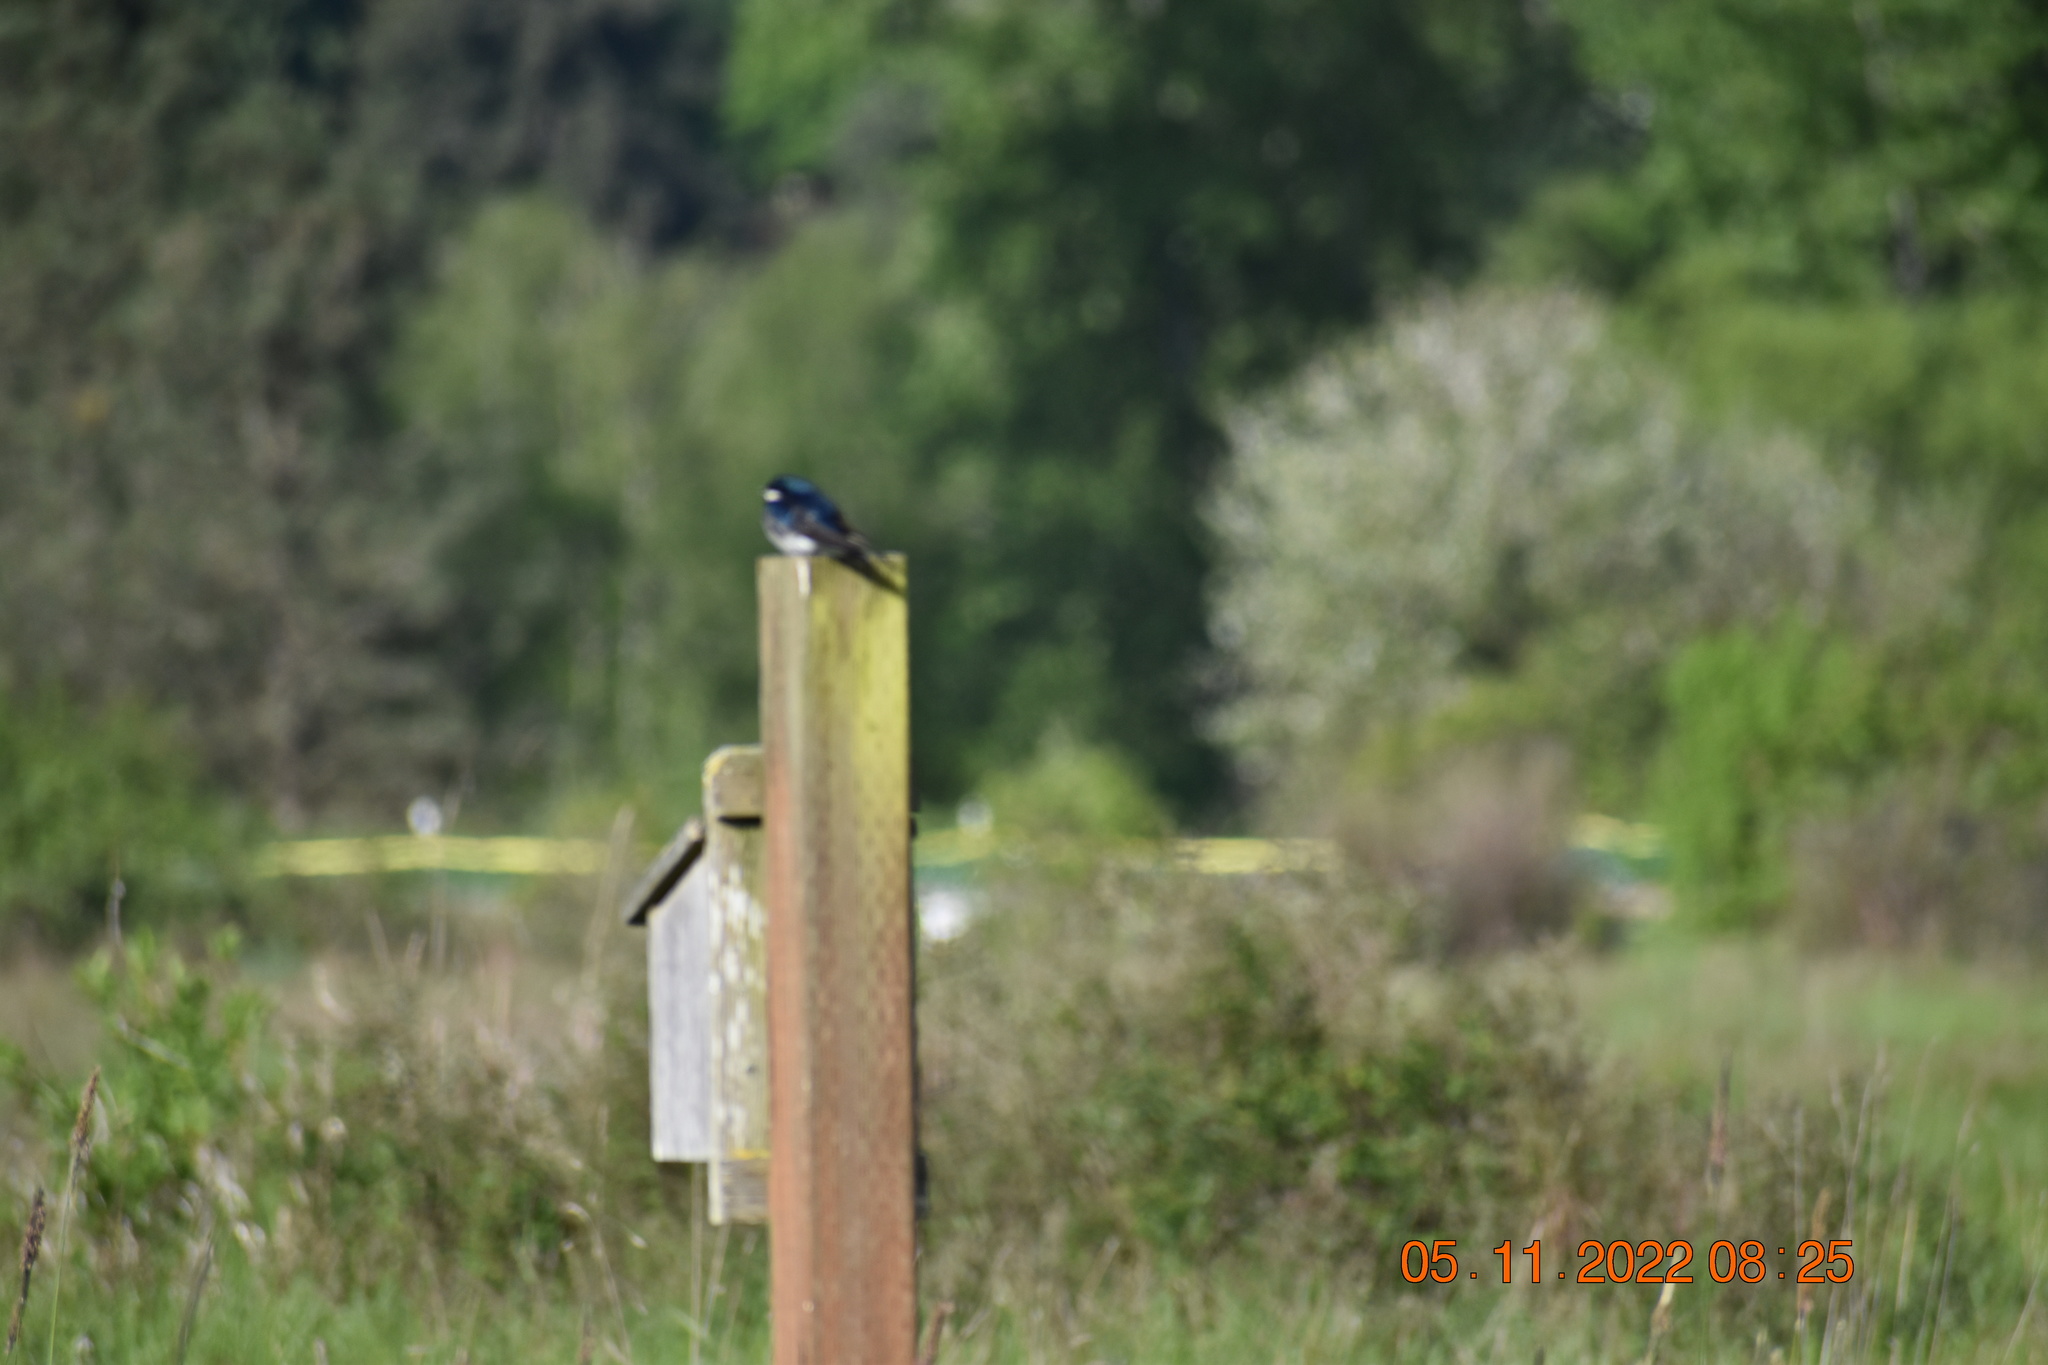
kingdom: Animalia
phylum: Chordata
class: Aves
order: Passeriformes
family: Hirundinidae
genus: Tachycineta
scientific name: Tachycineta bicolor
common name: Tree swallow
